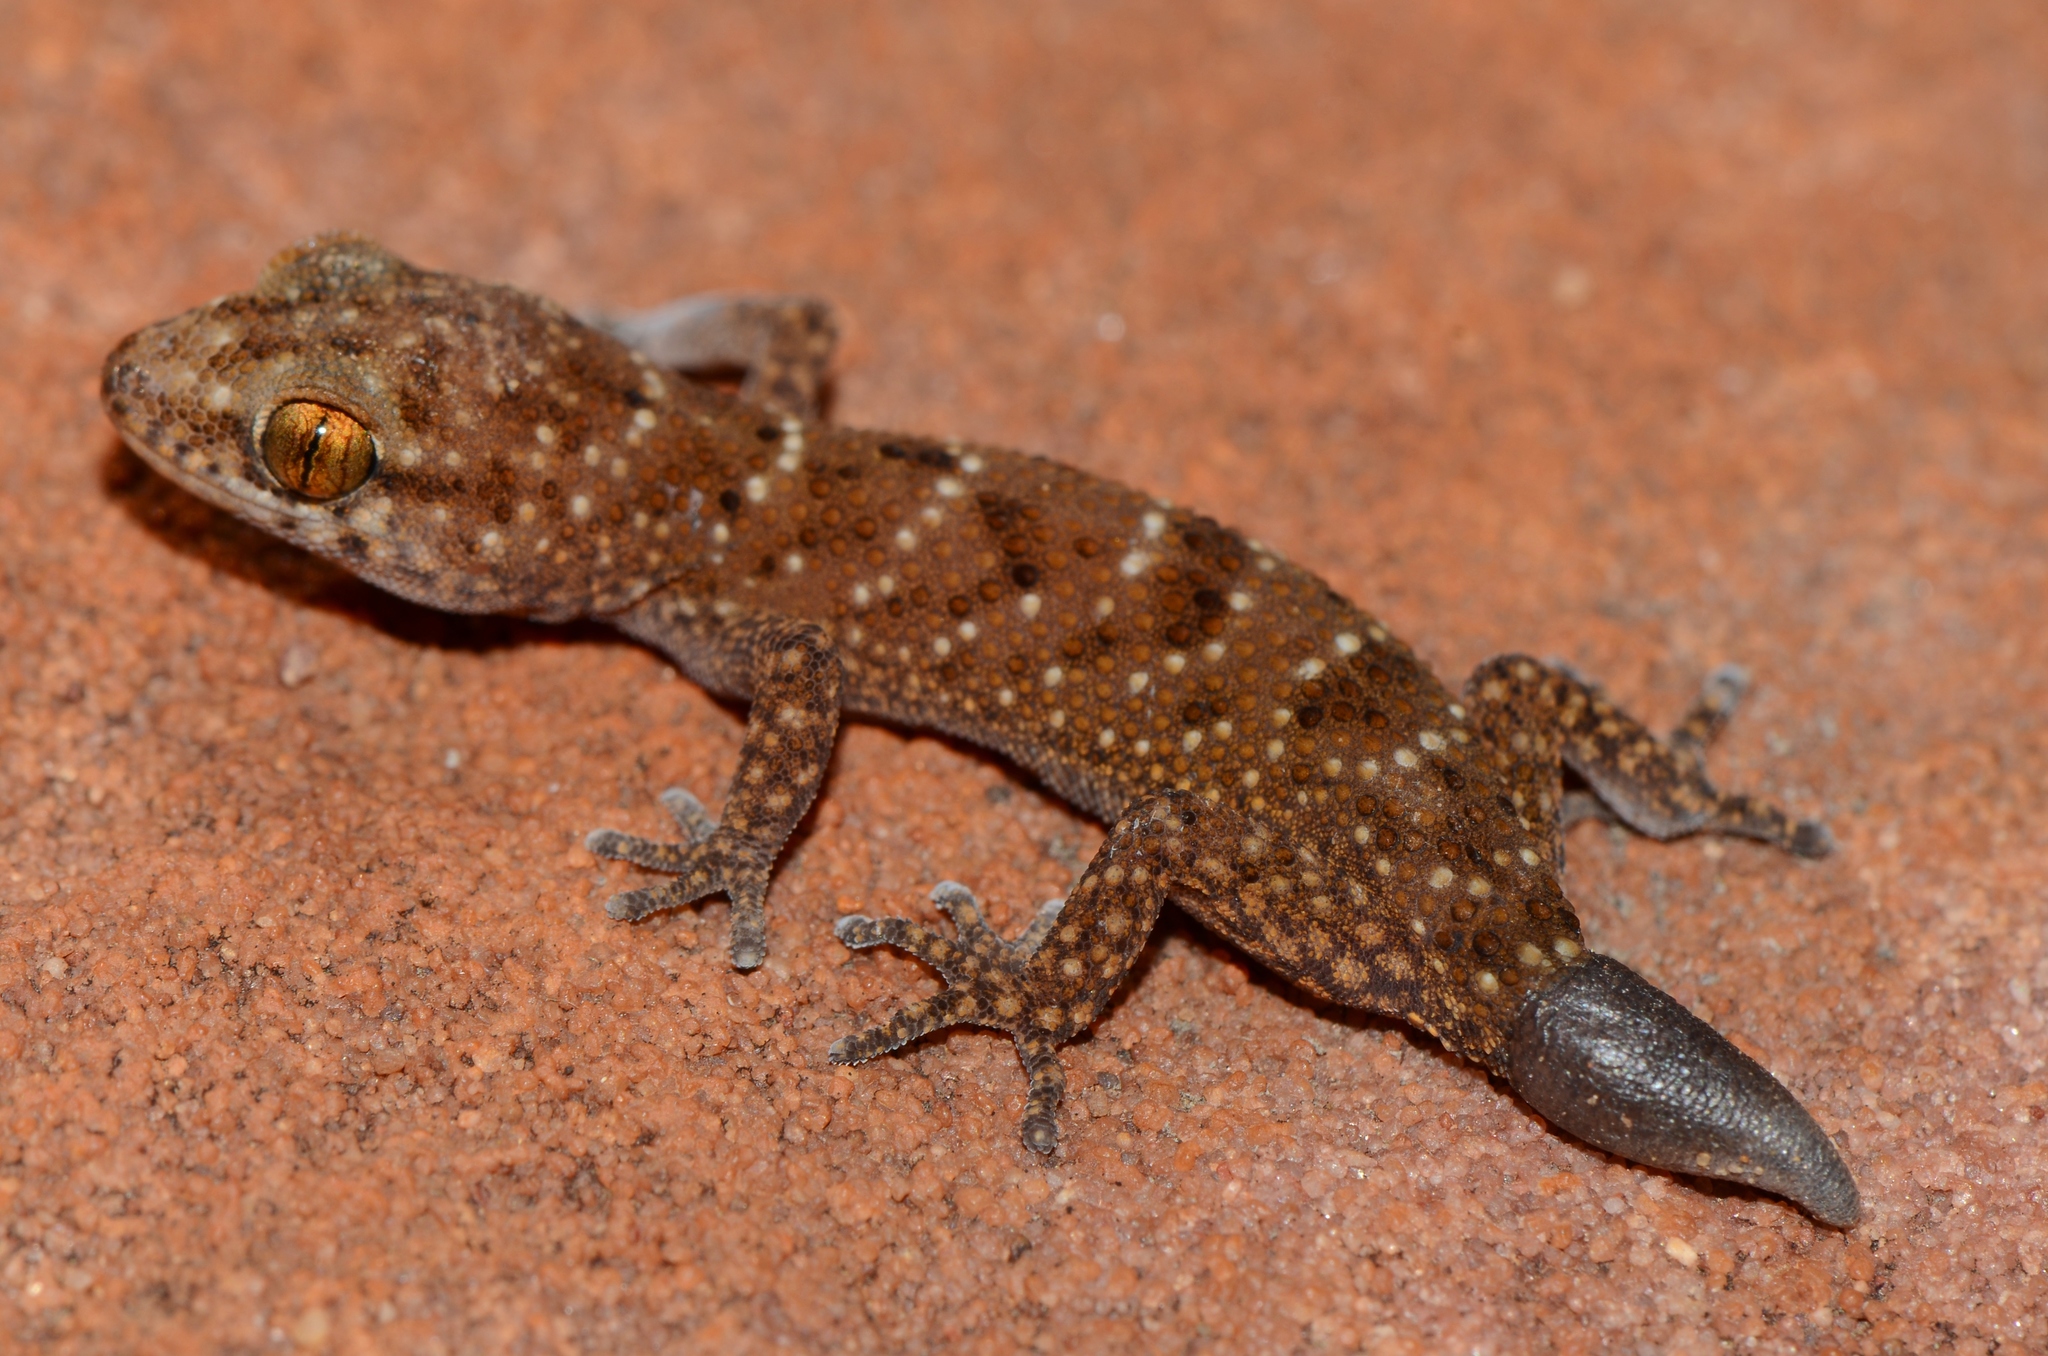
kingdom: Animalia
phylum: Chordata
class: Squamata
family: Gekkonidae
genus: Pachydactylus
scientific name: Pachydactylus capensis
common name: Cape gecko
